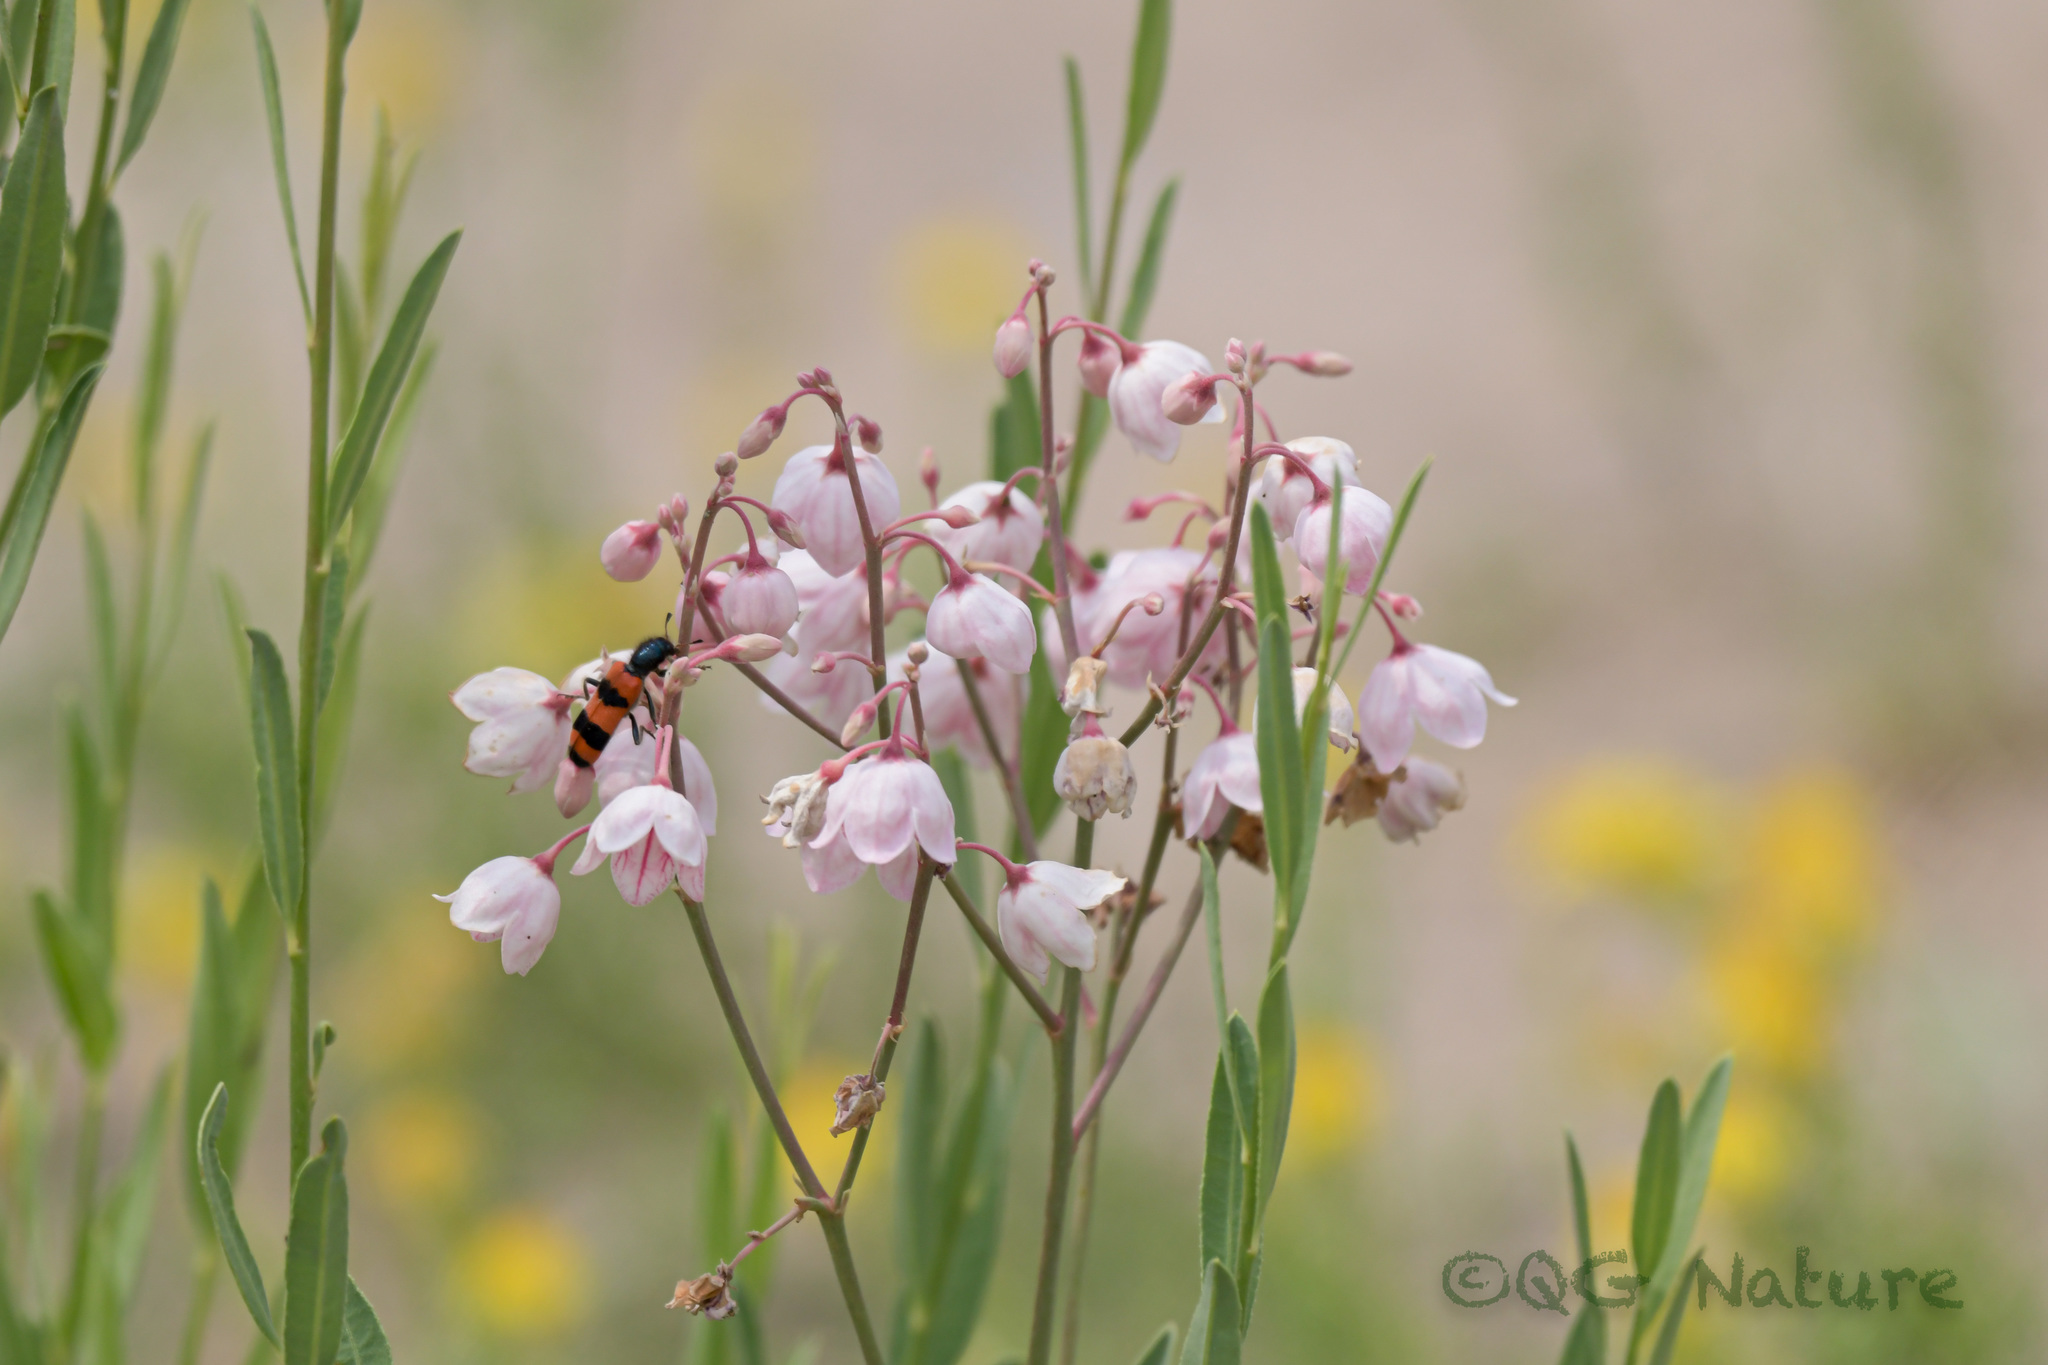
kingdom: Plantae
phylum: Tracheophyta
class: Magnoliopsida
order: Gentianales
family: Apocynaceae
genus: Poacynum
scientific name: Poacynum pictum
